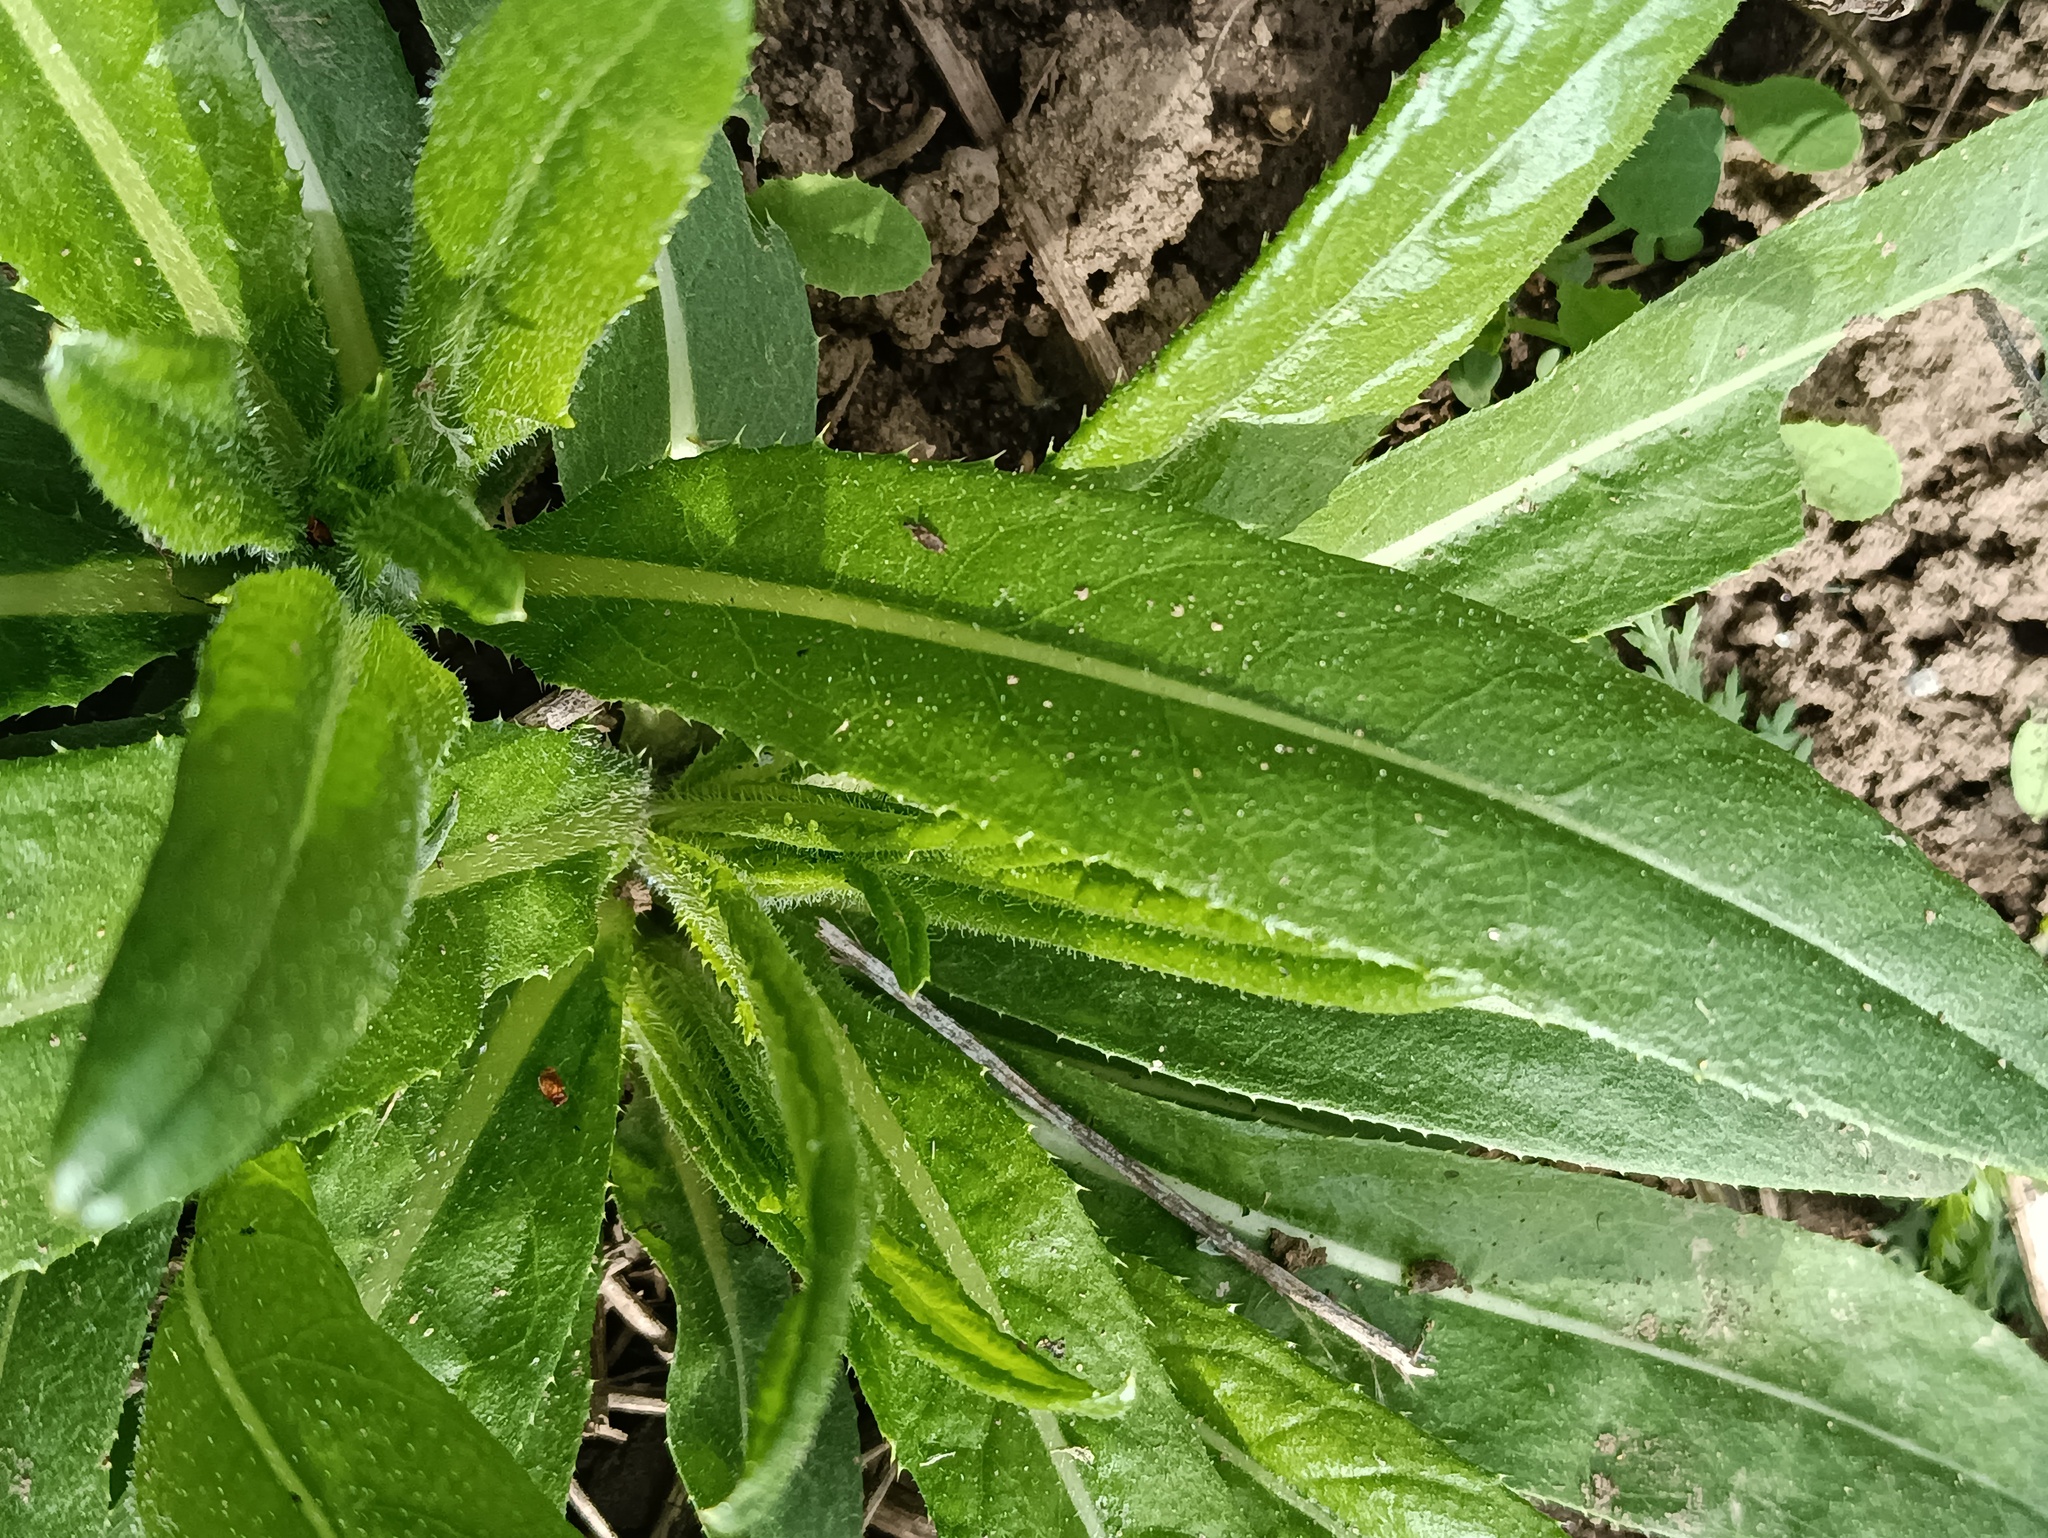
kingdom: Plantae
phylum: Tracheophyta
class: Magnoliopsida
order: Asterales
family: Asteraceae
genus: Cirsium
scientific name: Cirsium arvense
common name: Creeping thistle
